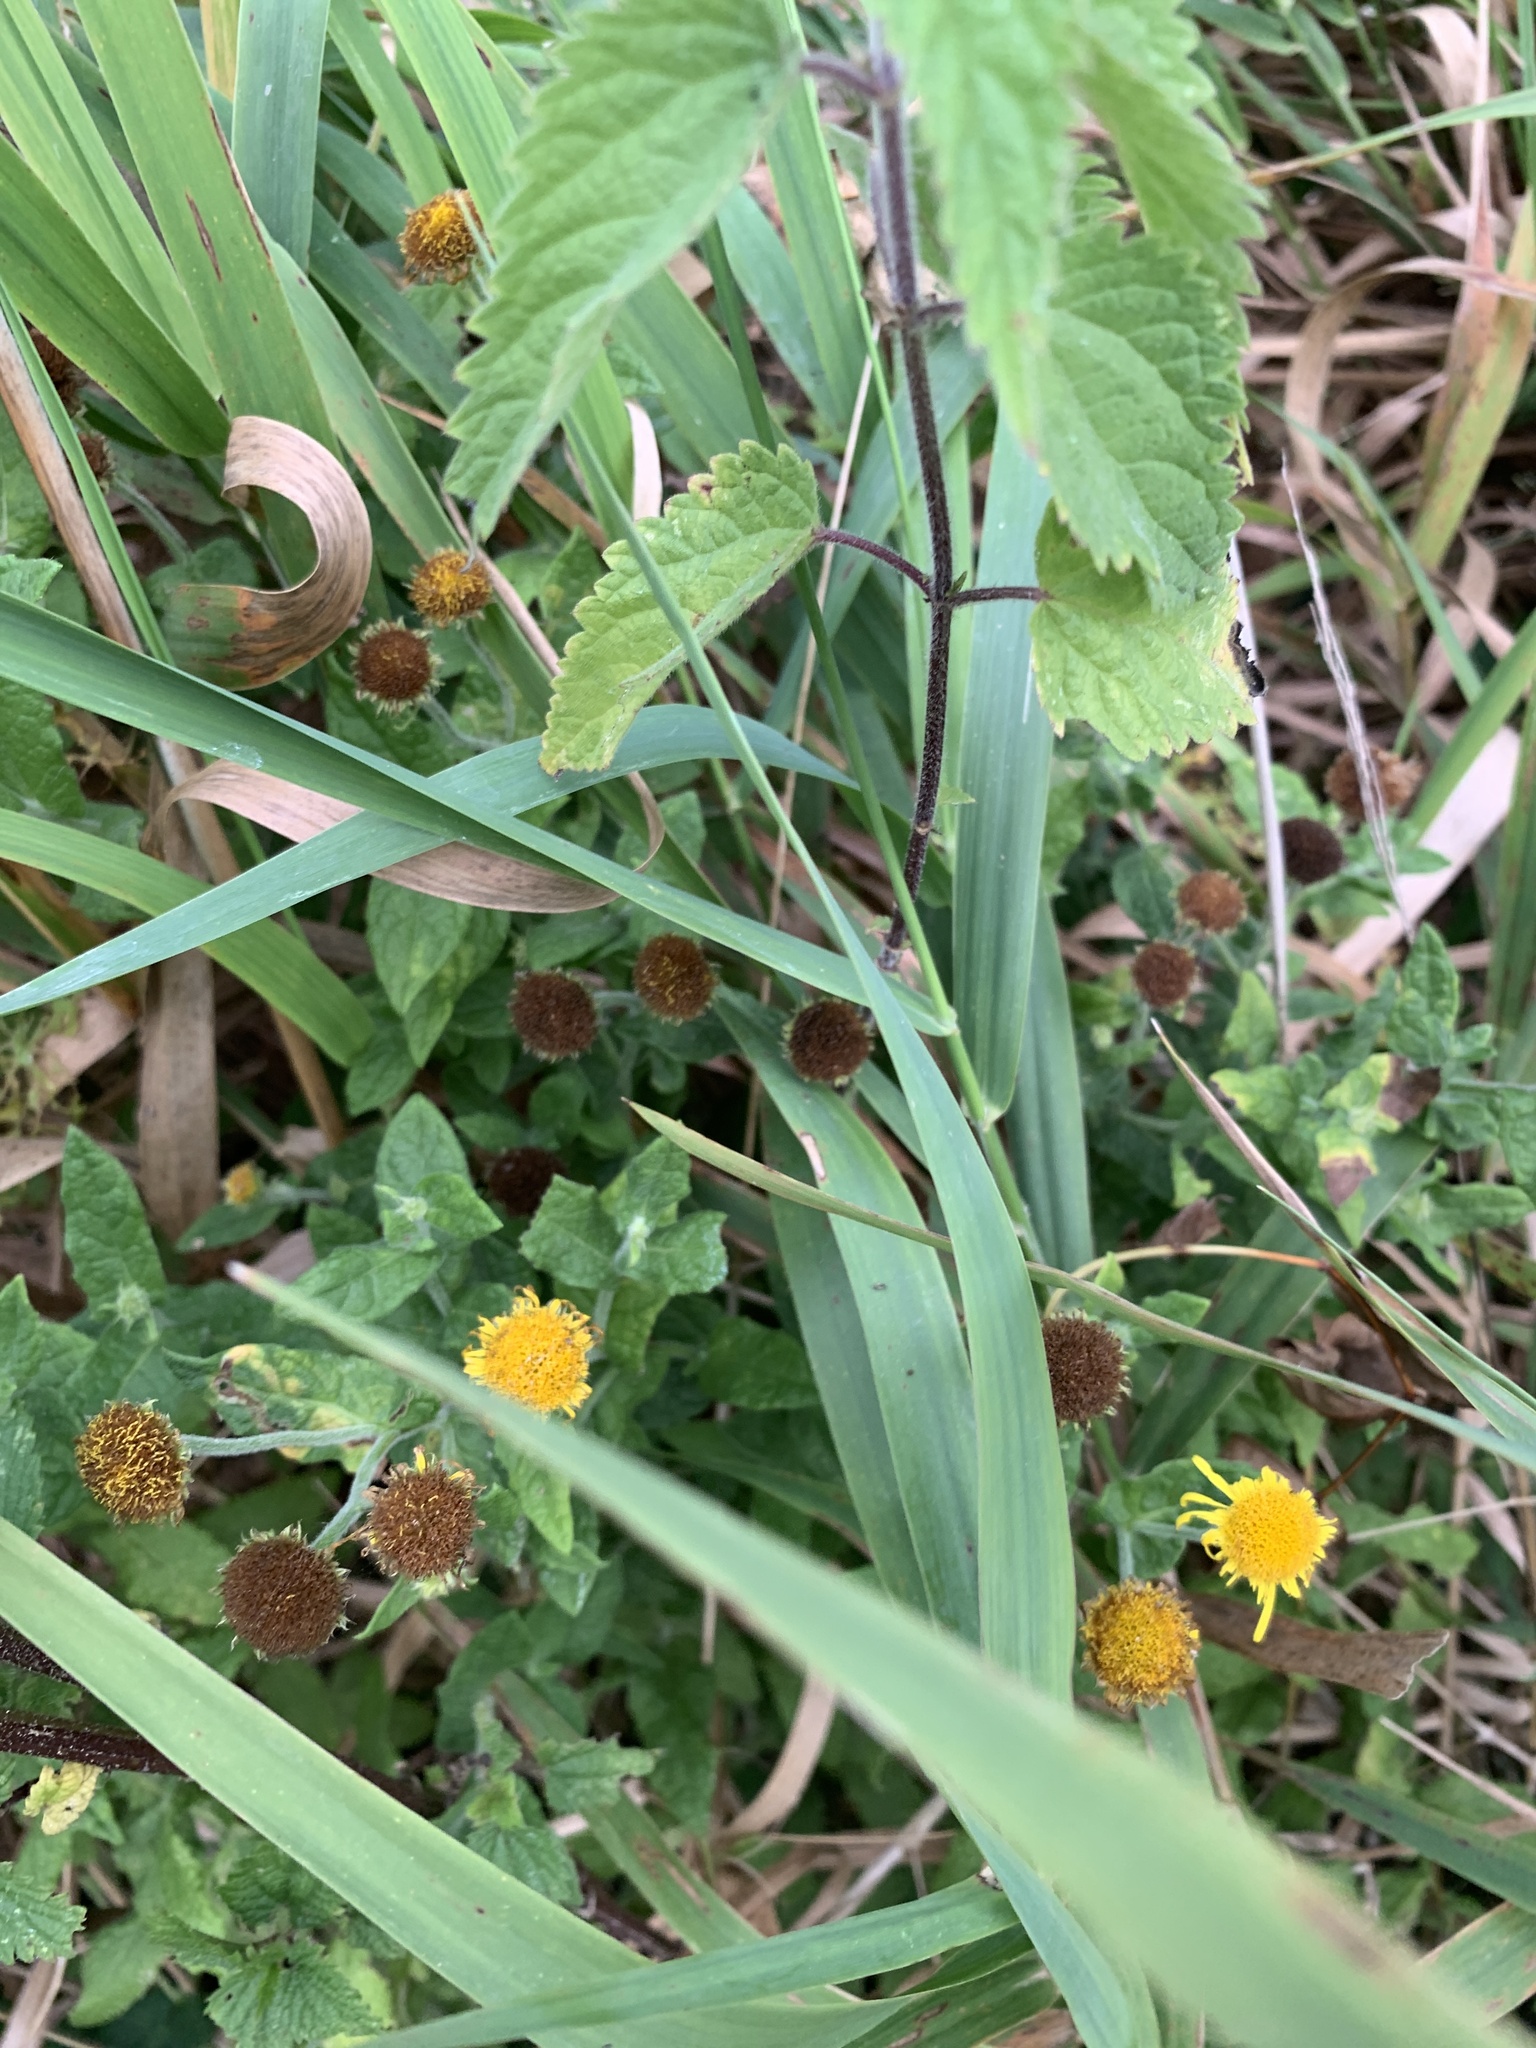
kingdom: Plantae
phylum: Tracheophyta
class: Magnoliopsida
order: Asterales
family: Asteraceae
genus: Pulicaria
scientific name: Pulicaria dysenterica
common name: Common fleabane
